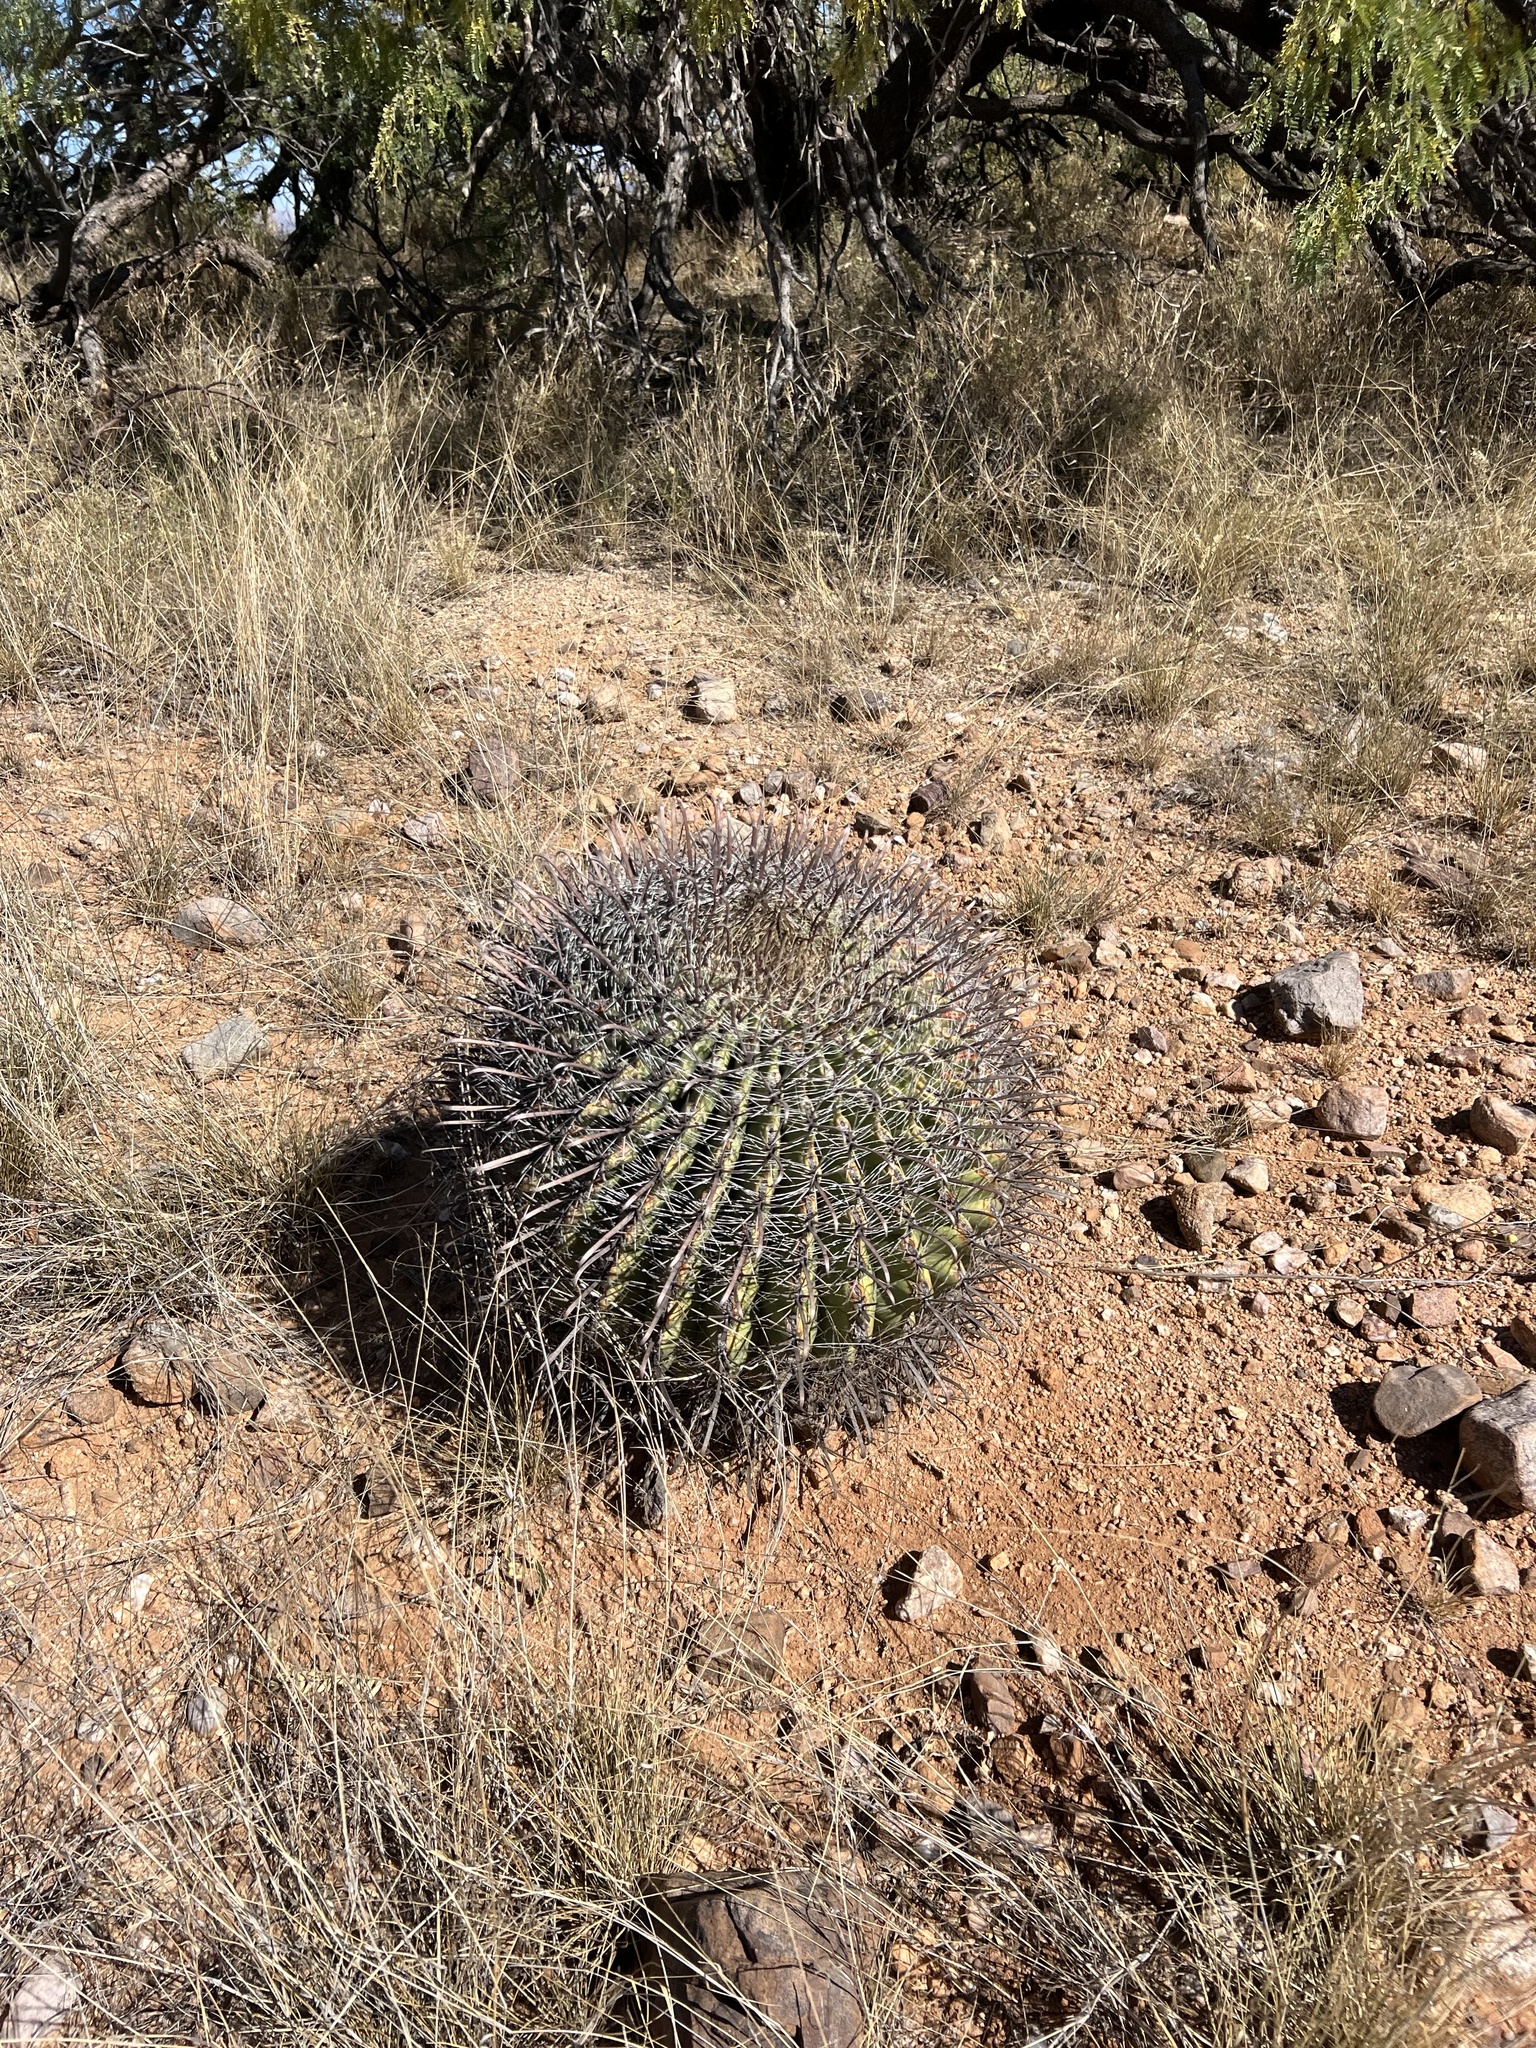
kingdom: Plantae
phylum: Tracheophyta
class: Magnoliopsida
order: Caryophyllales
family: Cactaceae
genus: Ferocactus
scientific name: Ferocactus wislizeni
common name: Candy barrel cactus
